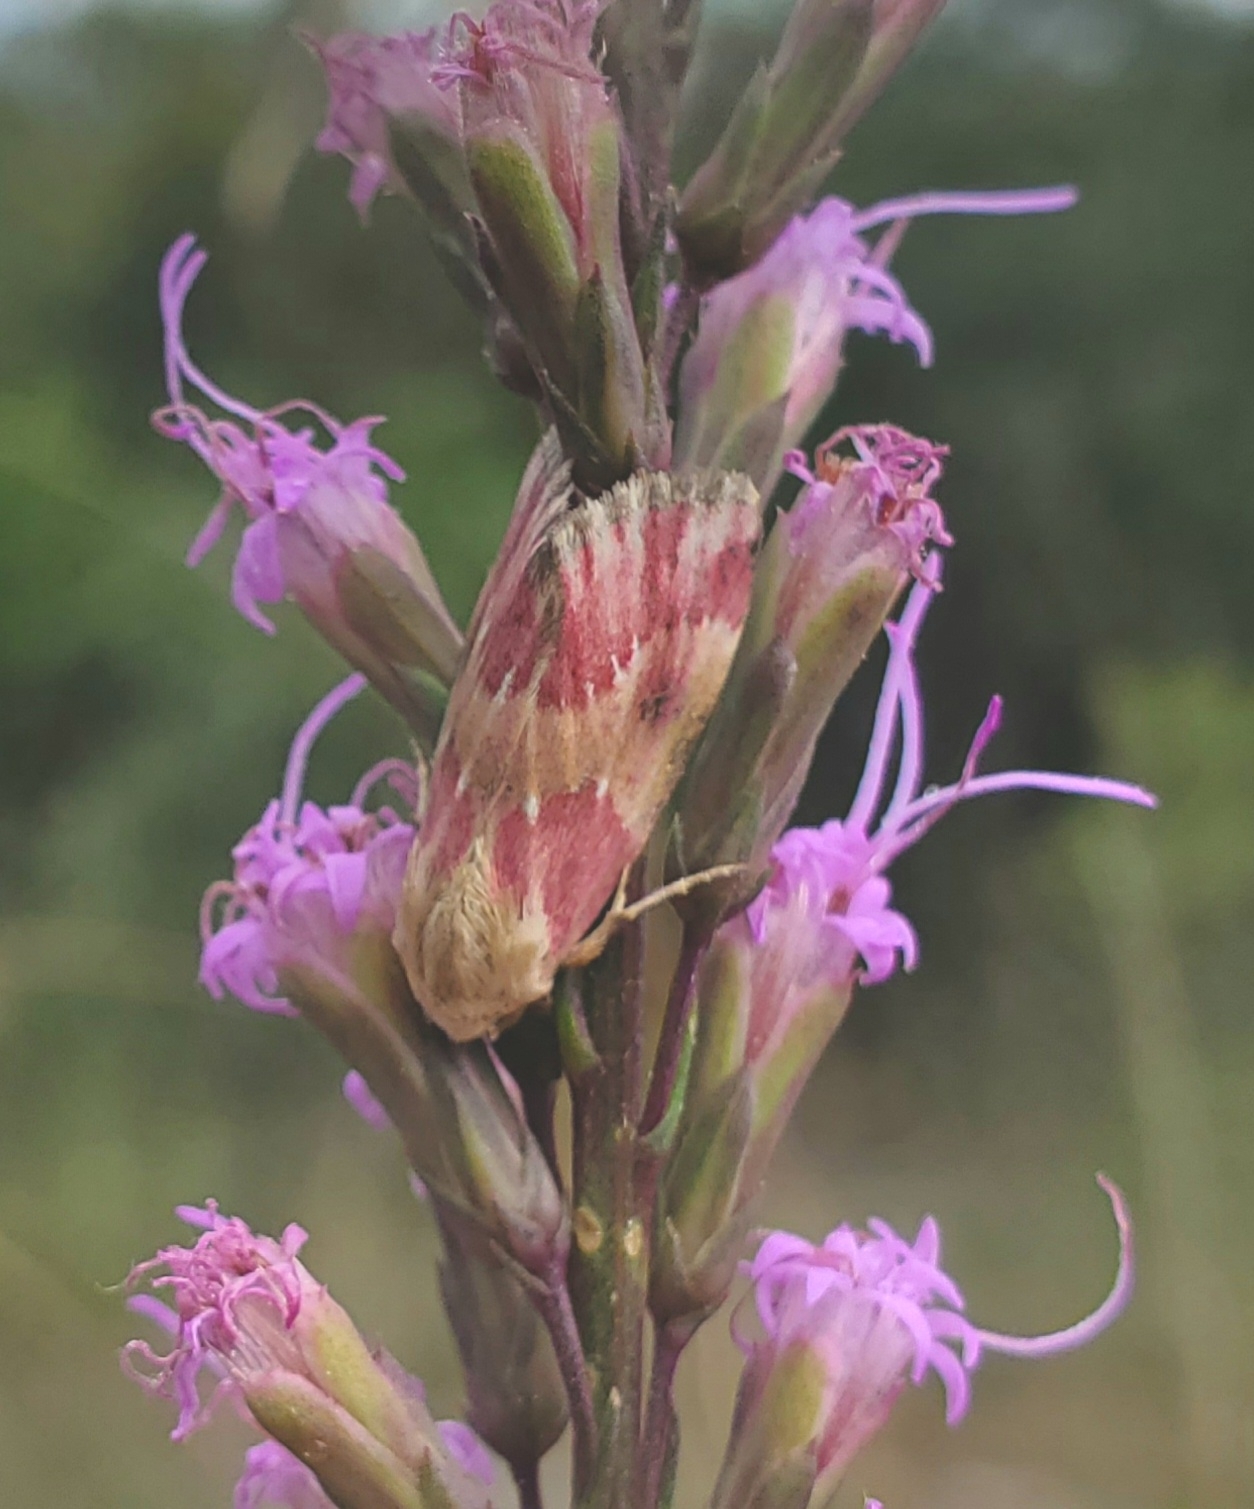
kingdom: Animalia
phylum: Arthropoda
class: Insecta
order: Lepidoptera
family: Noctuidae
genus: Schinia
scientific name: Schinia sanguinea
